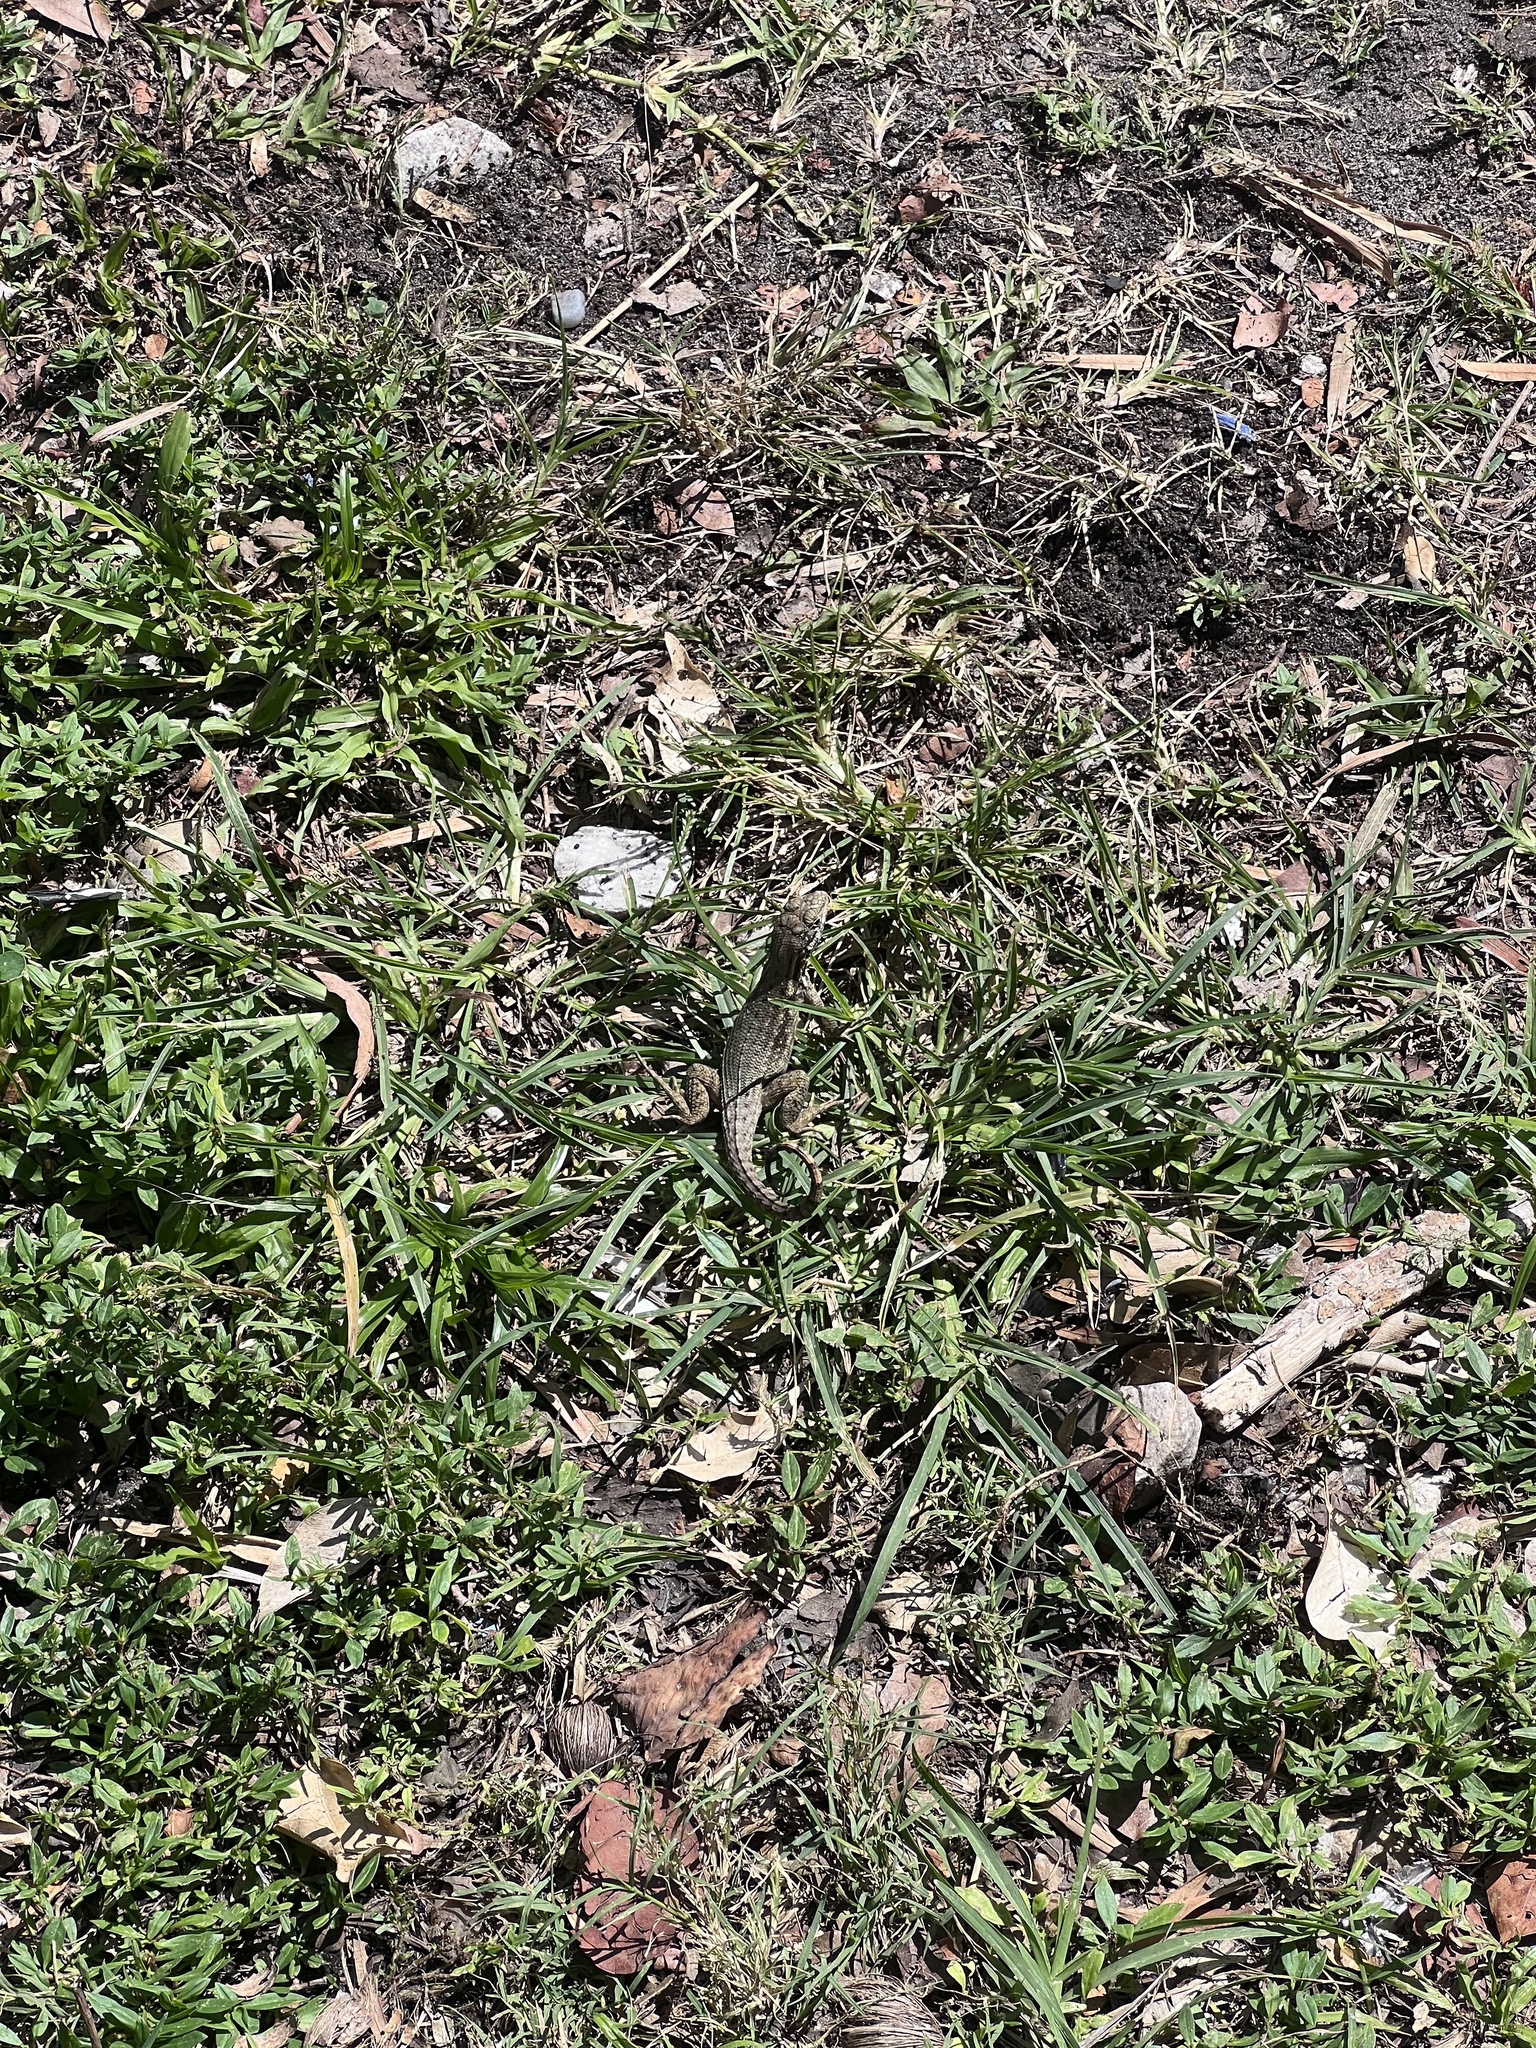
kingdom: Animalia
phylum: Chordata
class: Squamata
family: Leiocephalidae
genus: Leiocephalus
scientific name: Leiocephalus carinatus
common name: Northern curly-tailed lizard
